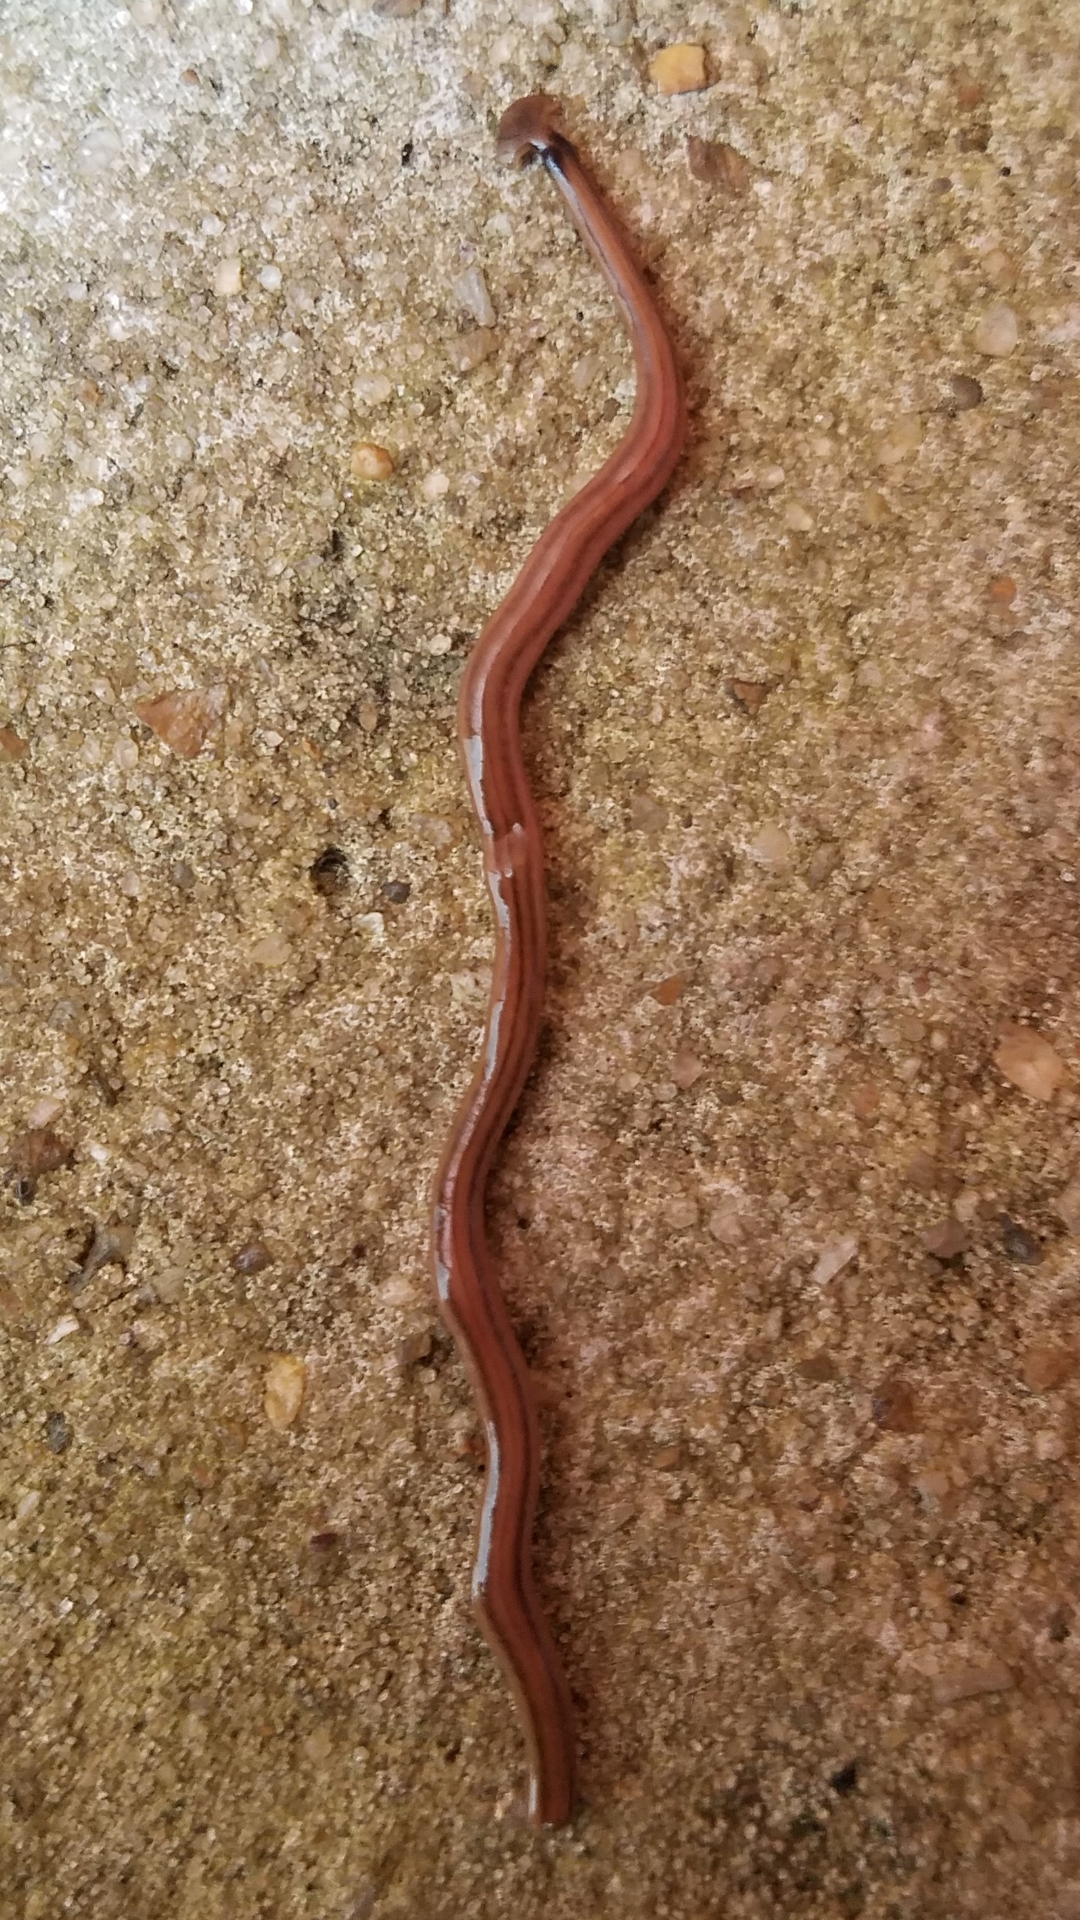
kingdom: Animalia
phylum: Platyhelminthes
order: Tricladida
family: Geoplanidae
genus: Bipalium
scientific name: Bipalium kewense
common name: Hammerhead flatworm
